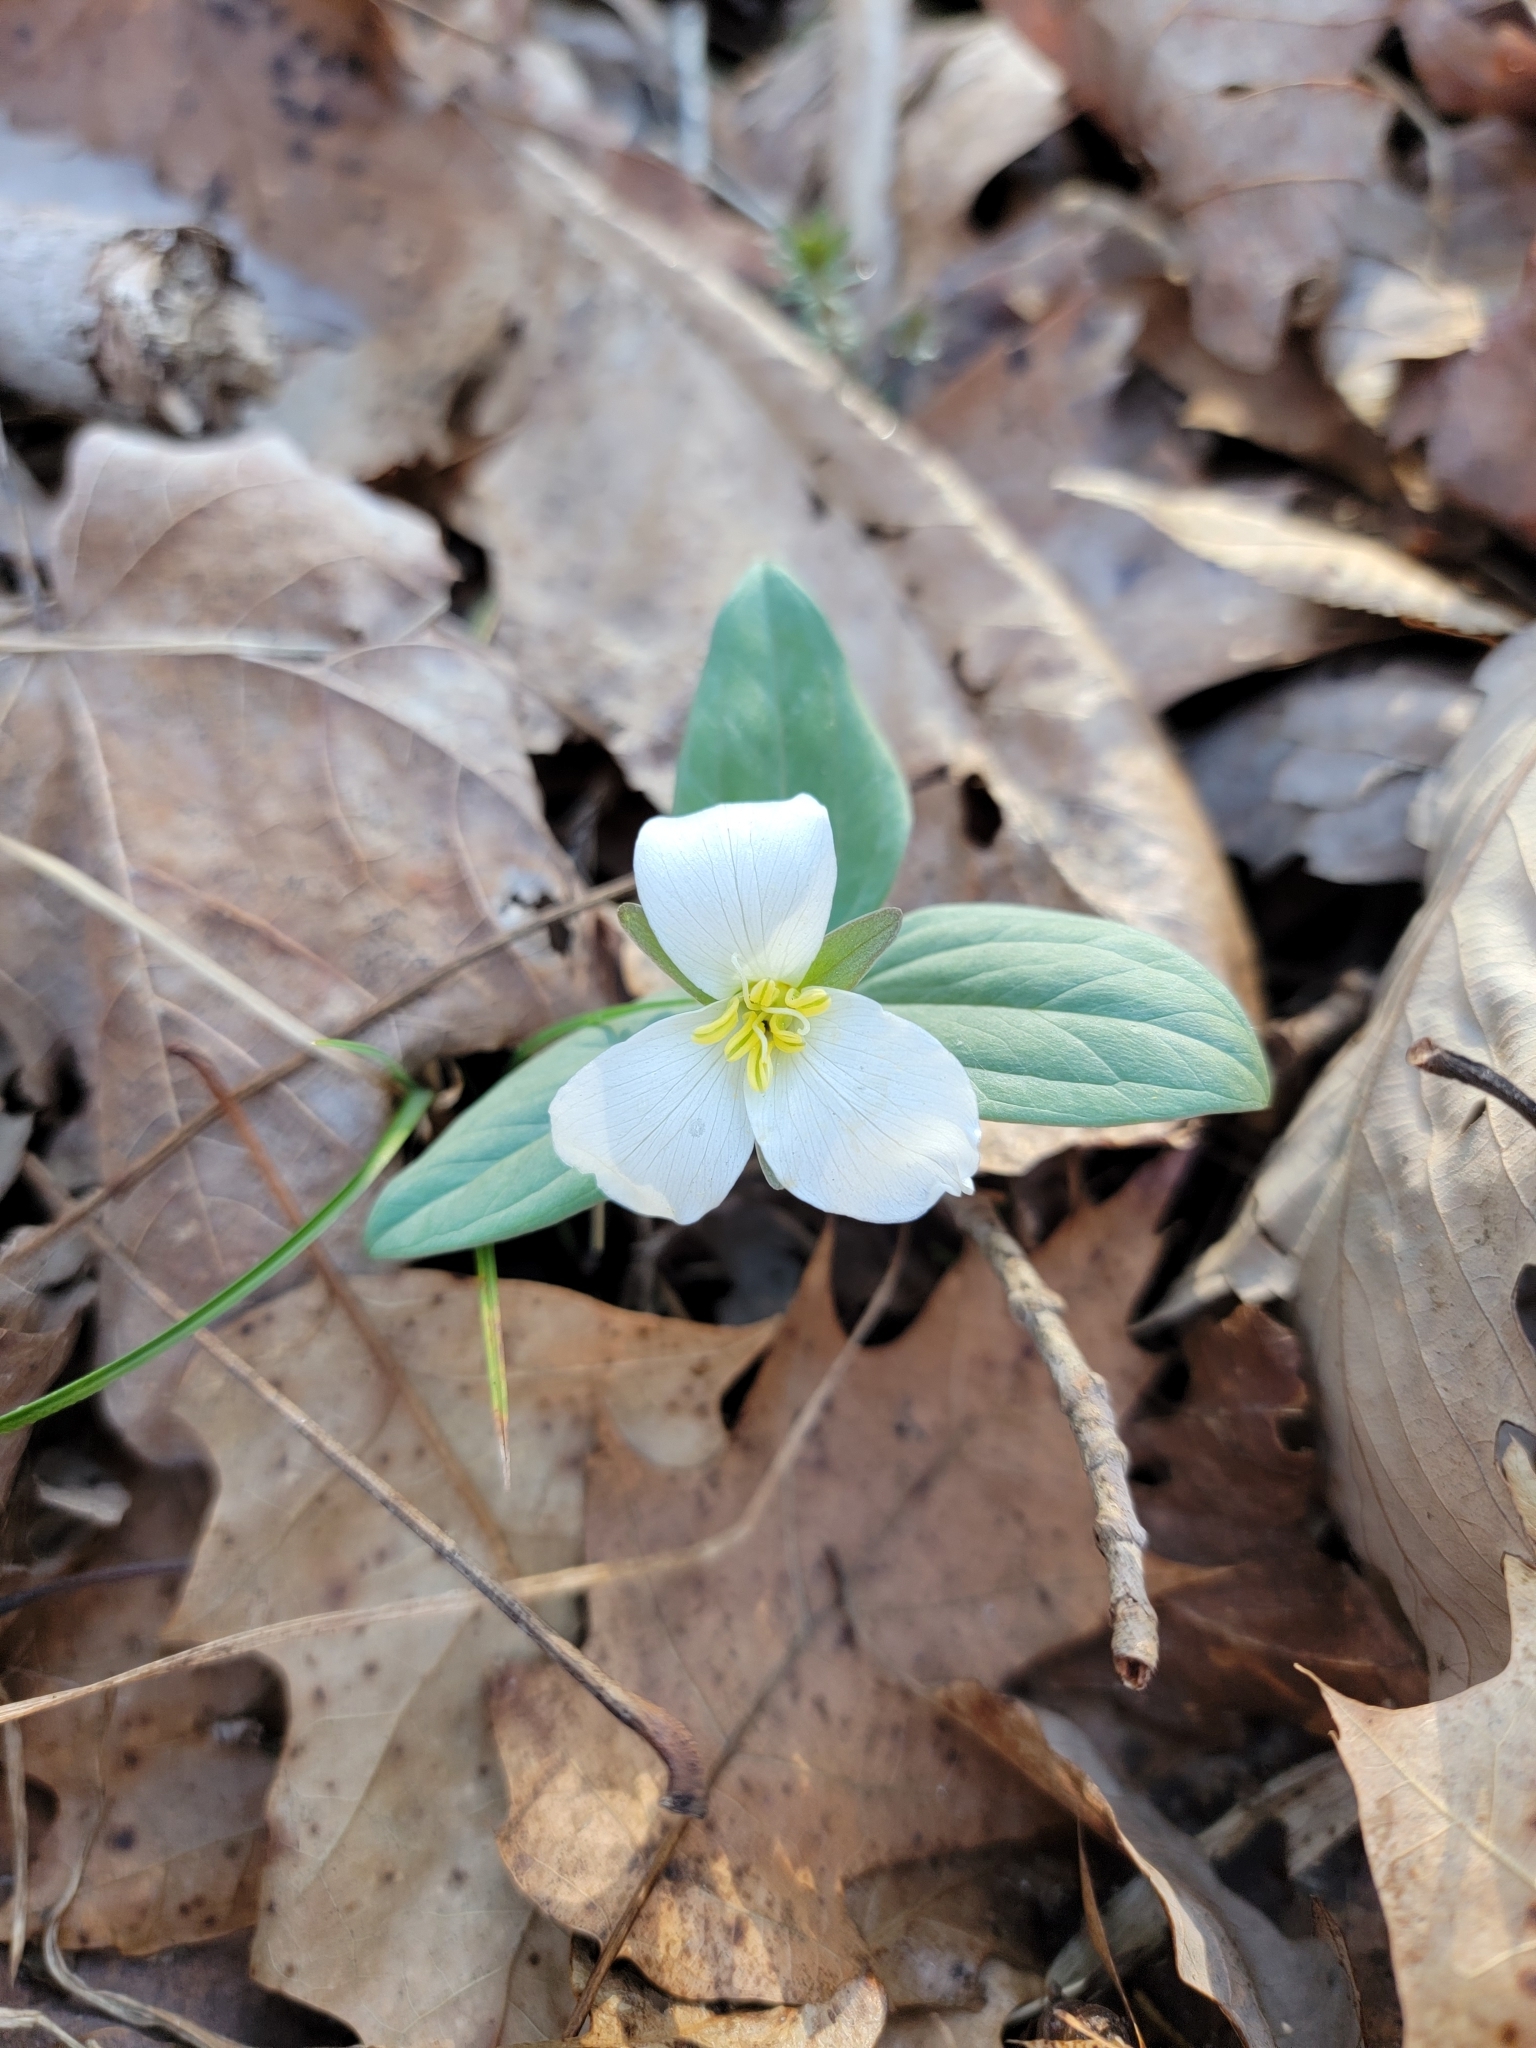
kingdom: Plantae
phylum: Tracheophyta
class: Liliopsida
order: Liliales
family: Melanthiaceae
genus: Trillium
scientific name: Trillium nivale
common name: Dwarf white trillium
